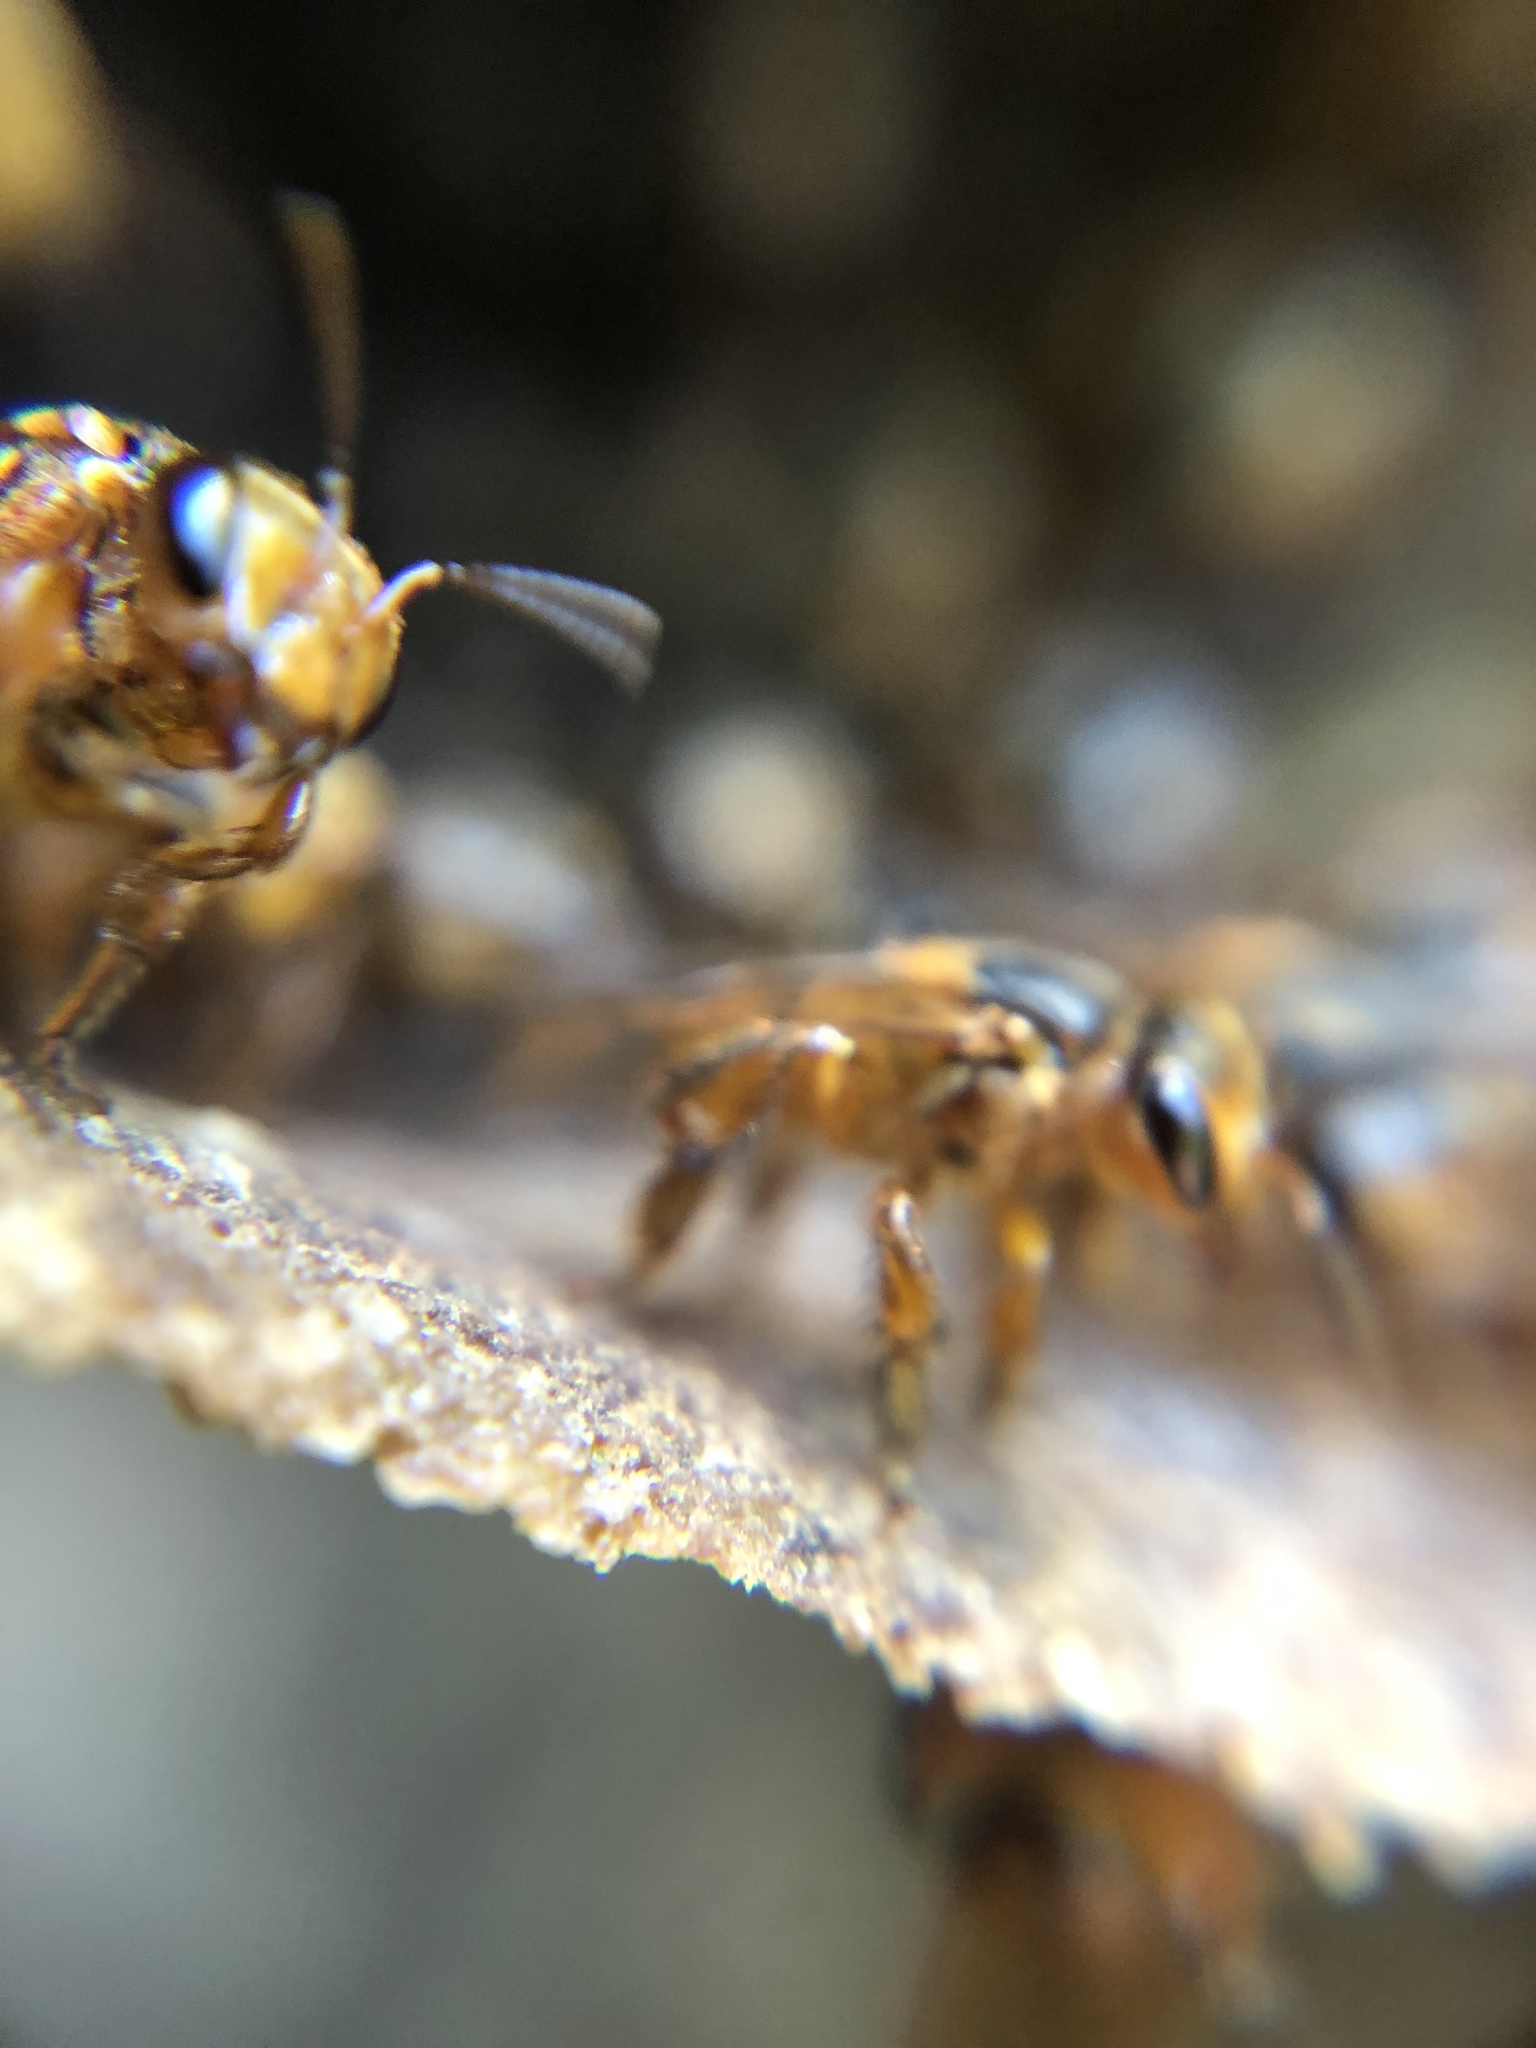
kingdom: Animalia
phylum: Arthropoda
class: Insecta
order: Hymenoptera
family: Apidae
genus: Scaptotrigona
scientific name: Scaptotrigona pectoralis
